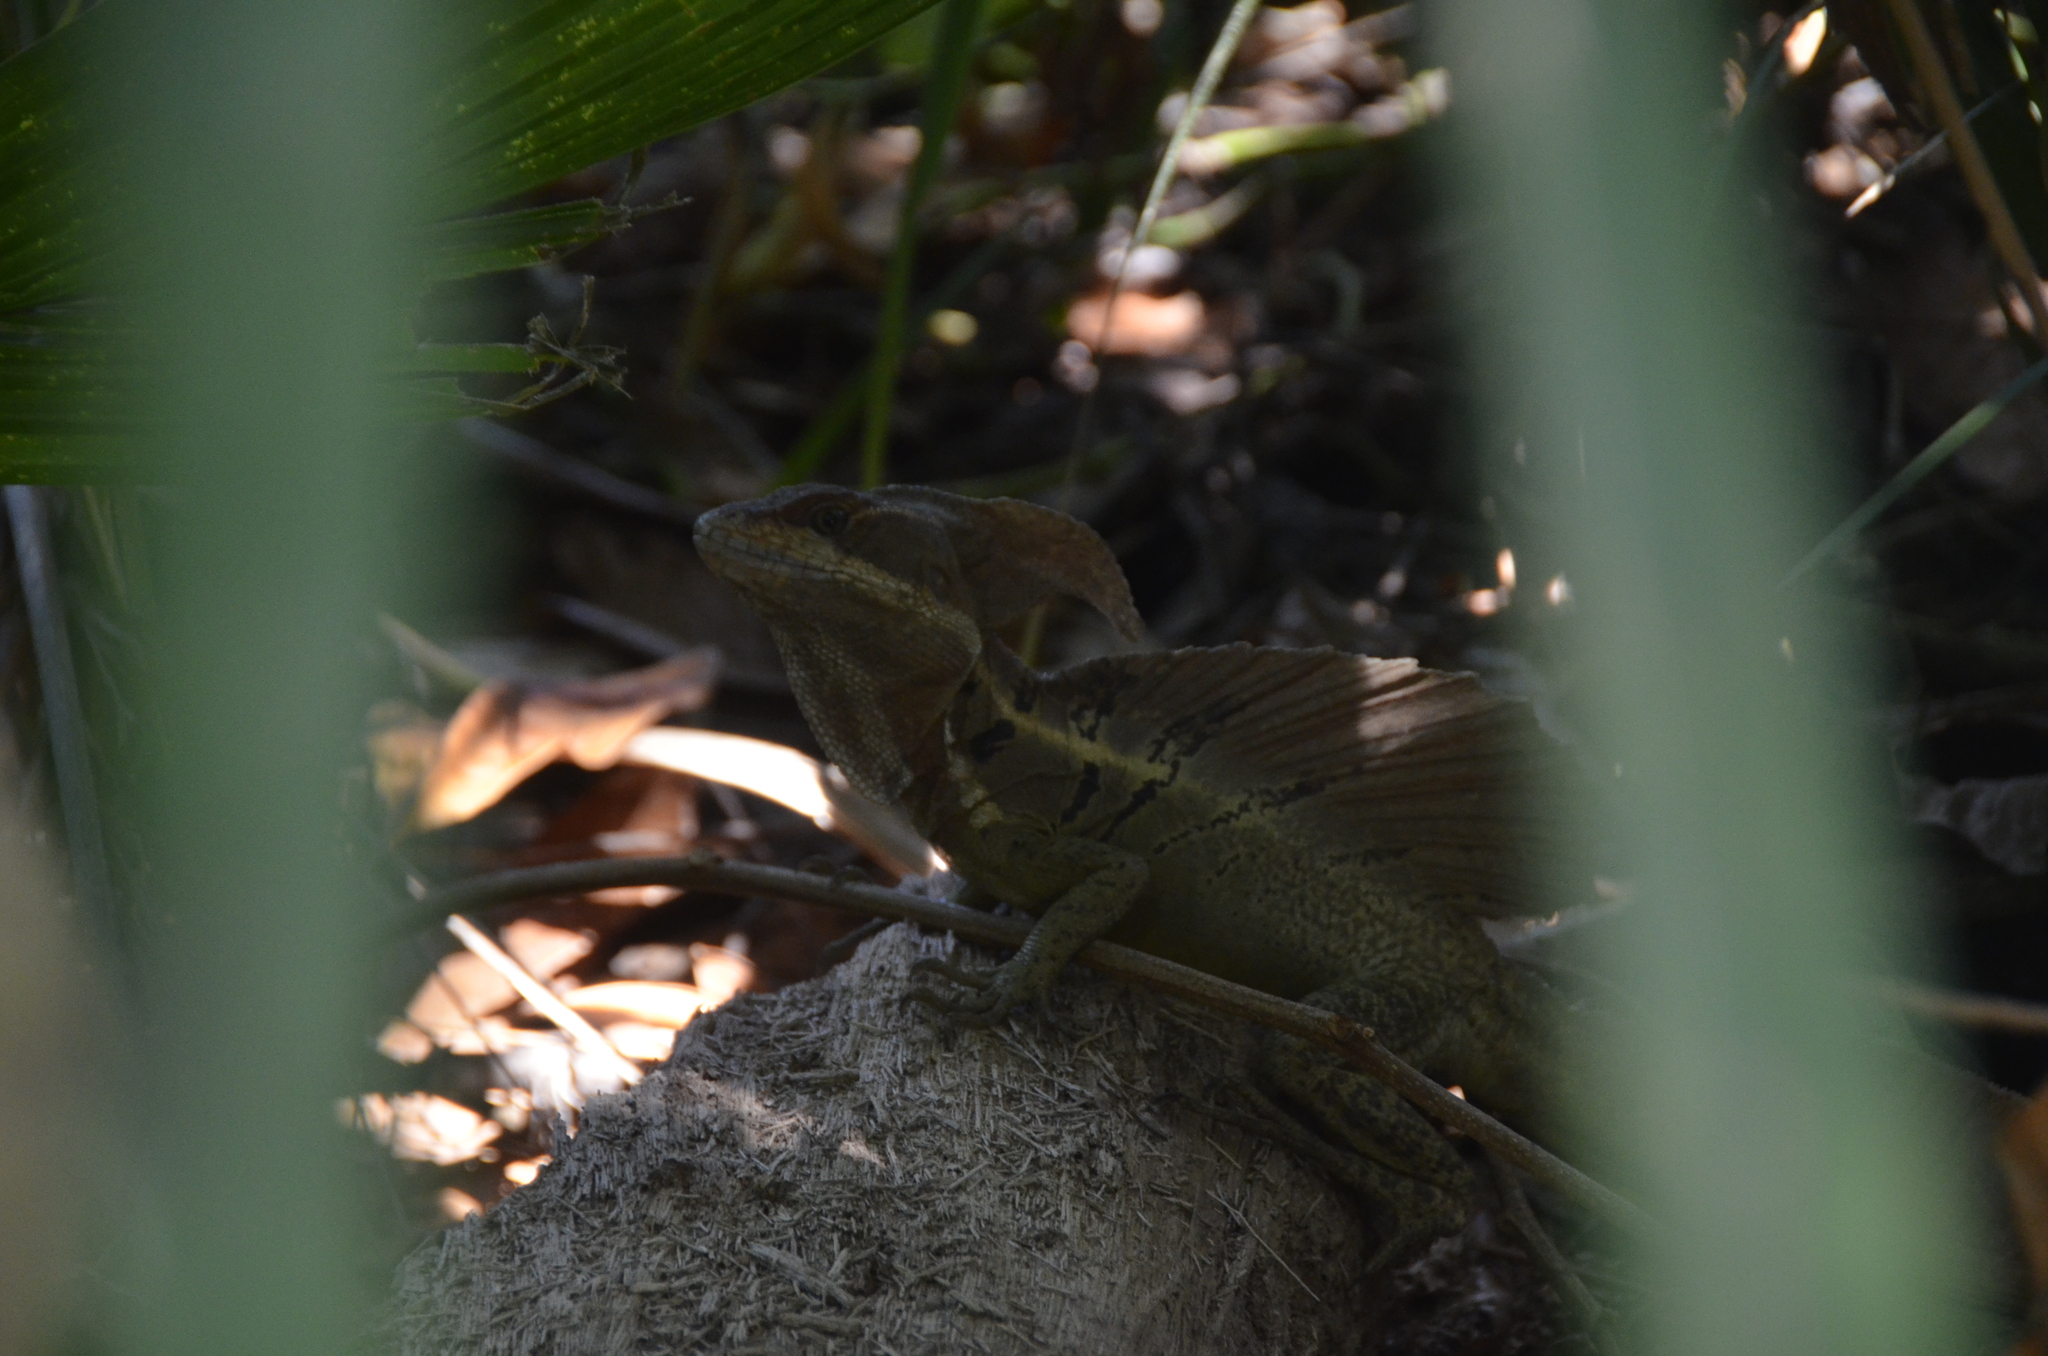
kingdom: Animalia
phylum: Chordata
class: Squamata
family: Corytophanidae
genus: Basiliscus
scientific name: Basiliscus basiliscus
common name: Common basilisk
